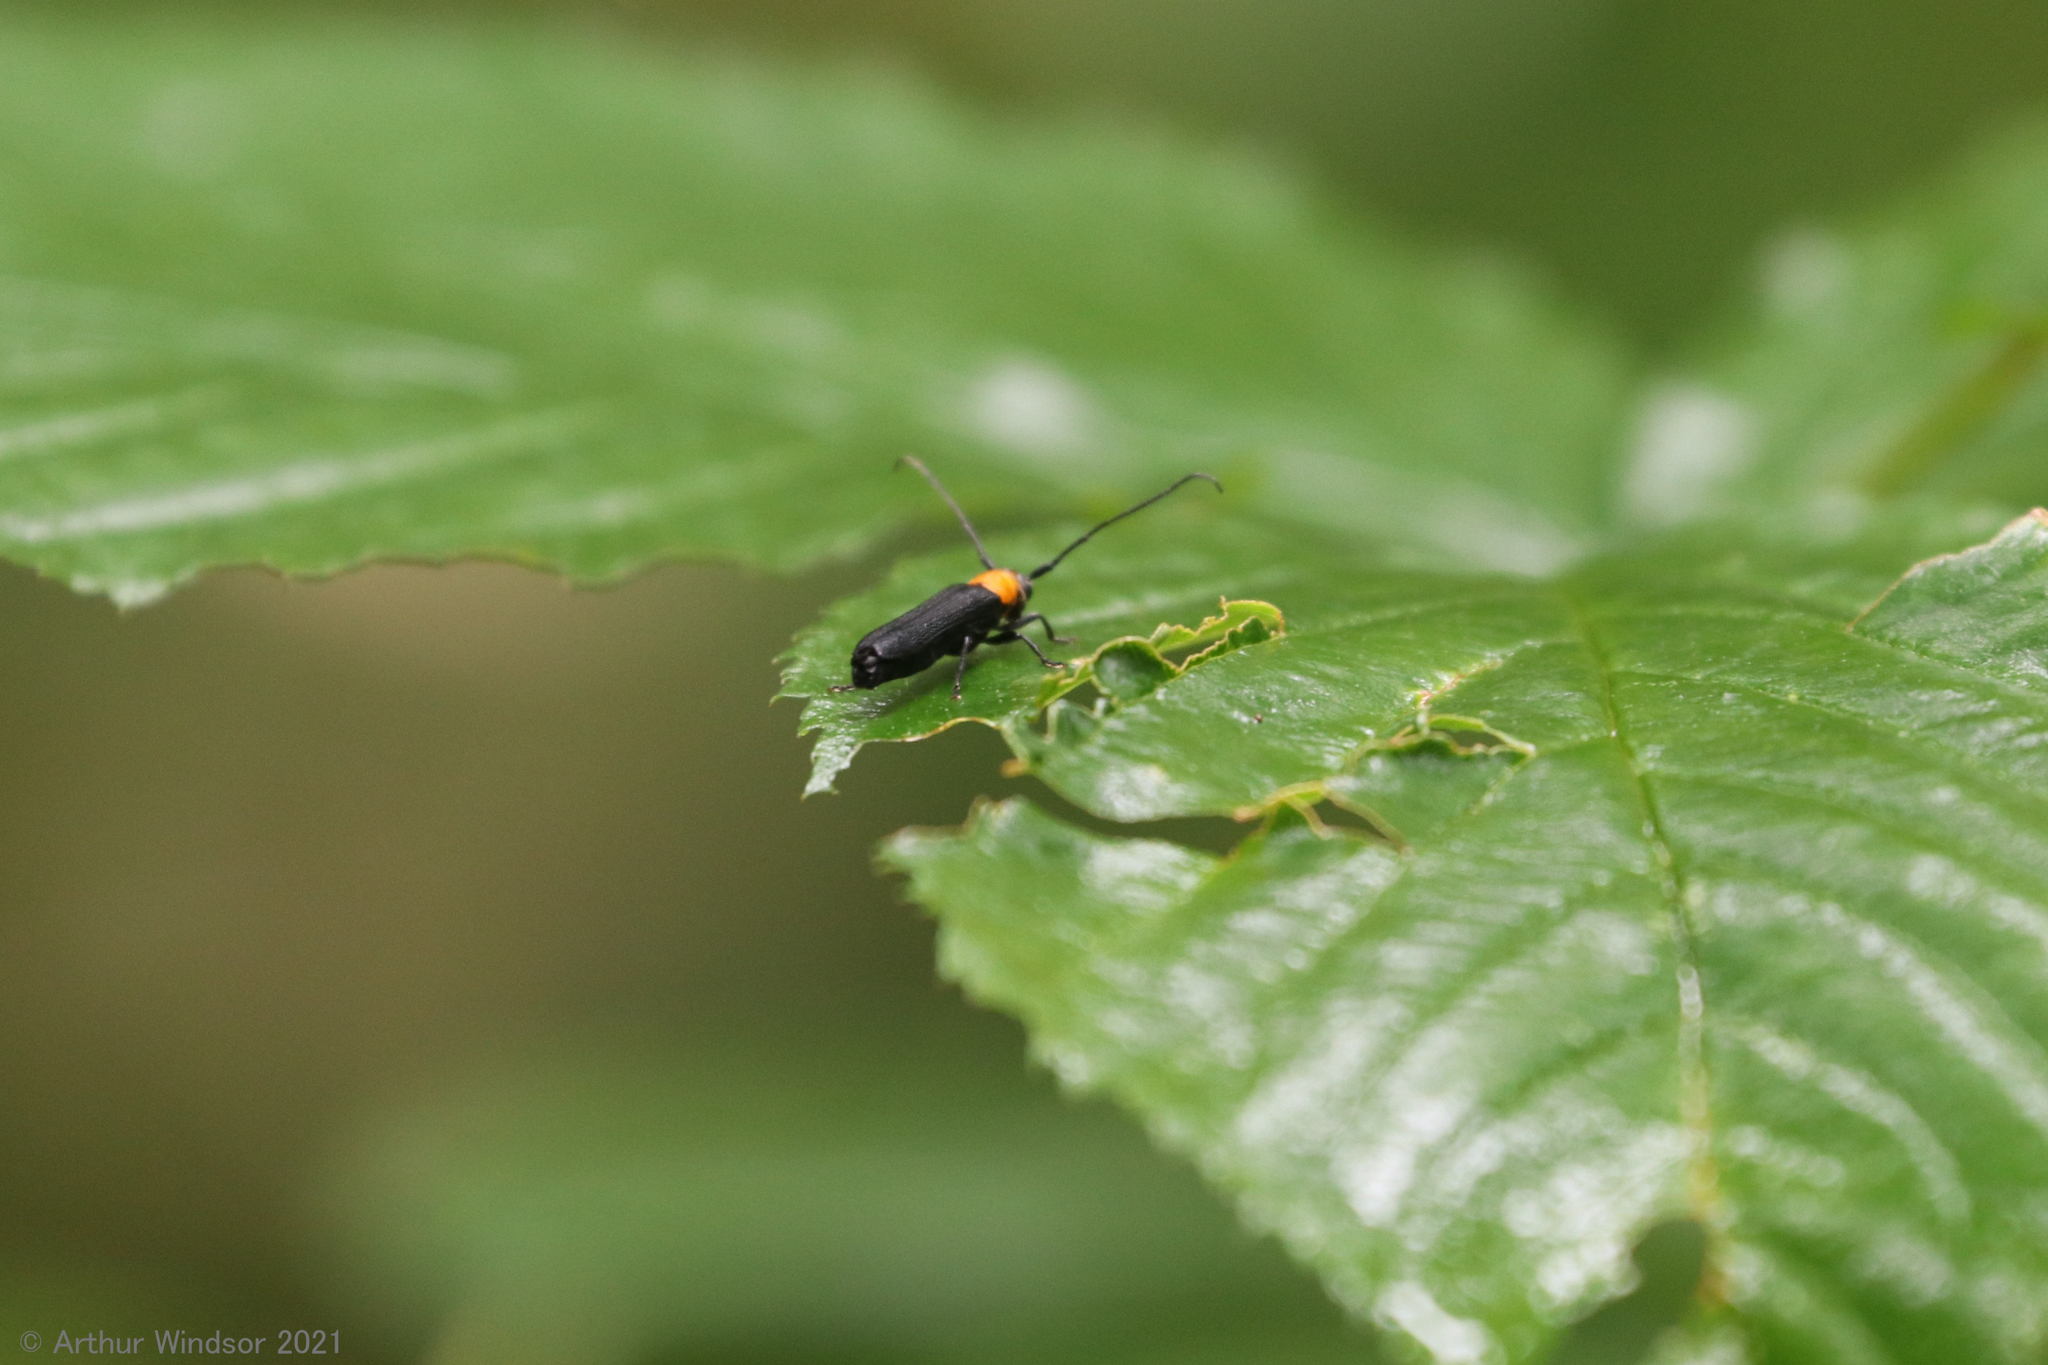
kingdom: Animalia
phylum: Arthropoda
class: Insecta
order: Coleoptera
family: Cerambycidae
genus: Oberea
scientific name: Oberea affinis
